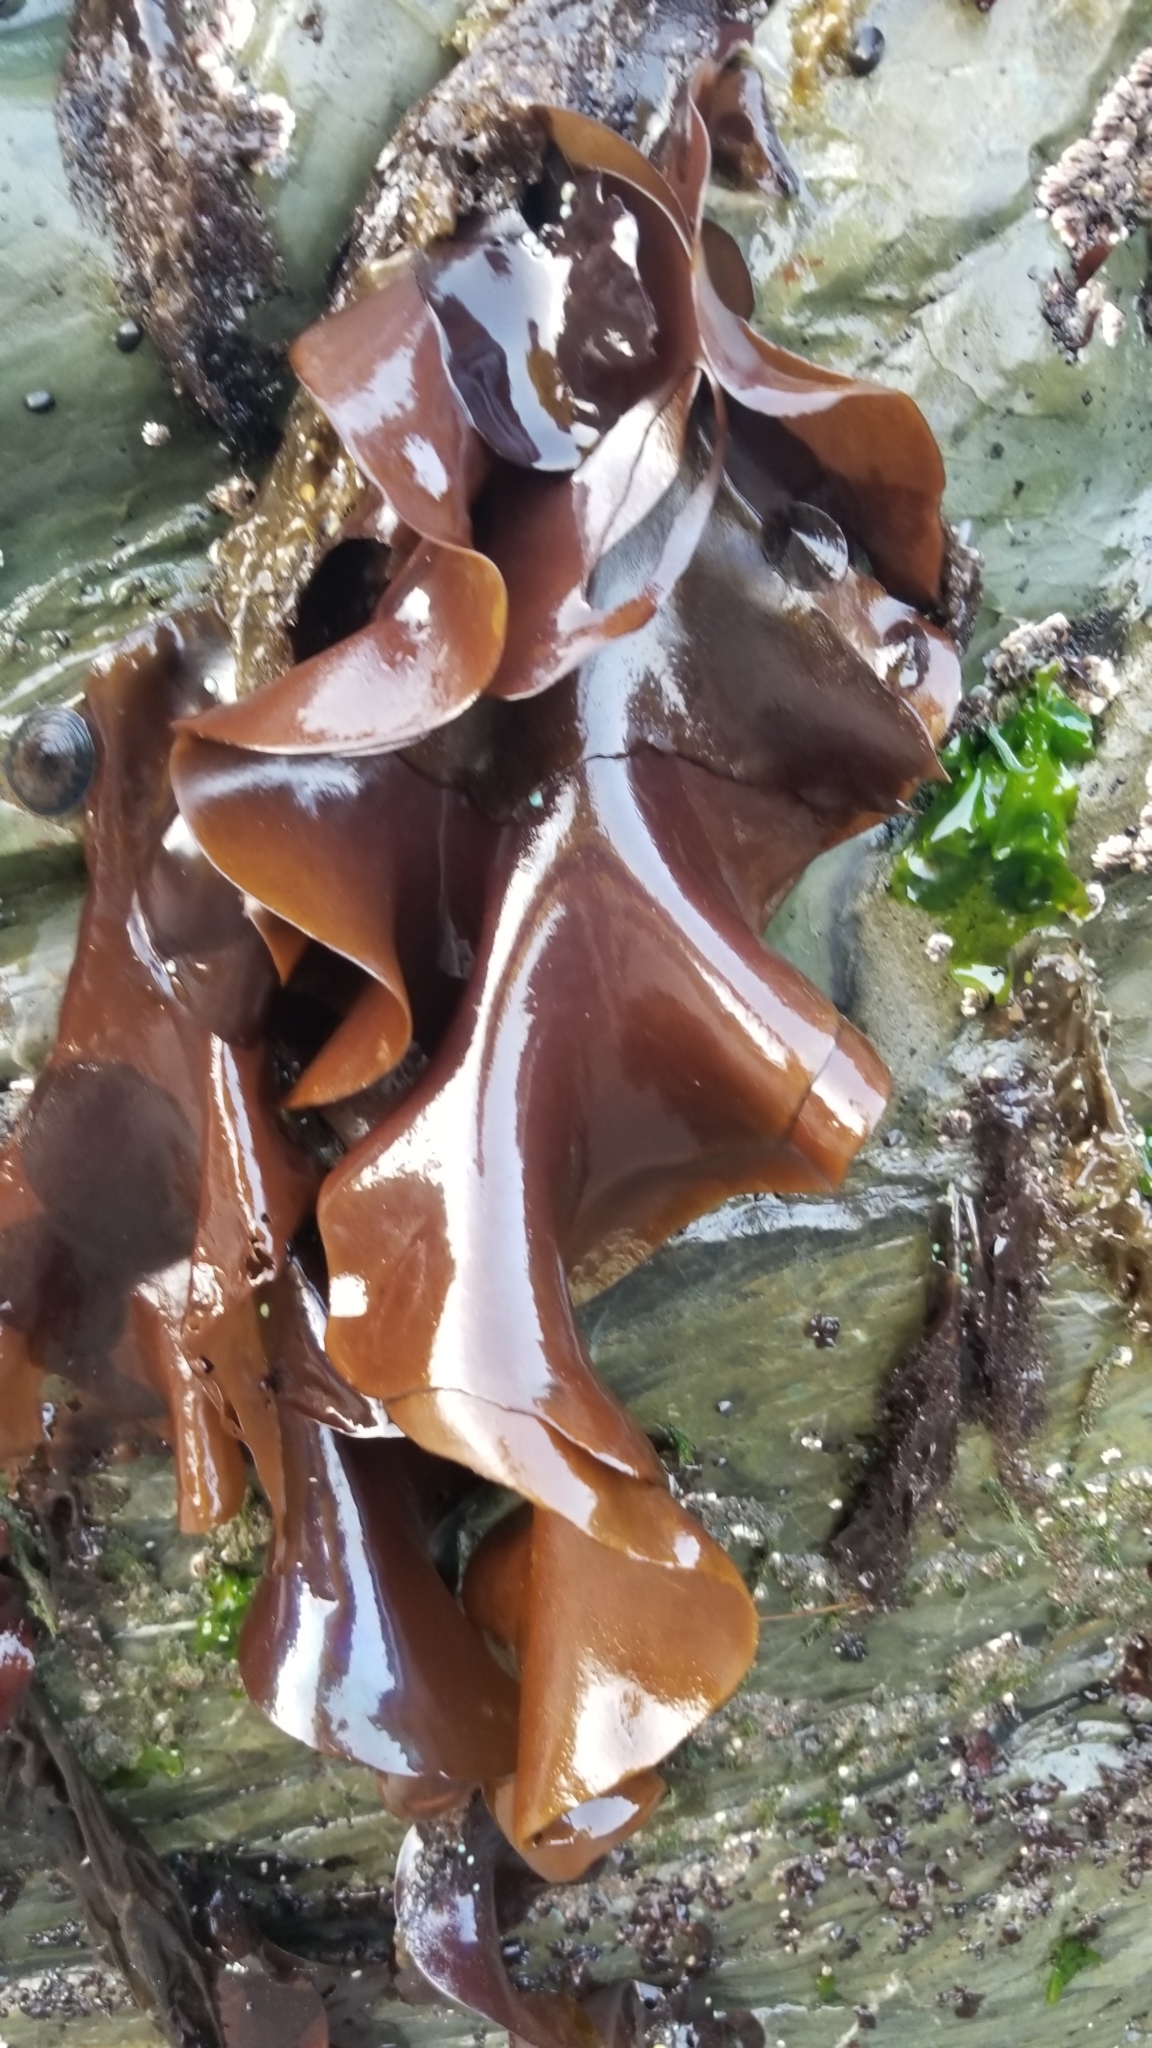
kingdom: Plantae
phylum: Rhodophyta
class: Florideophyceae
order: Gigartinales
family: Gigartinaceae
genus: Mazzaella
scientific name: Mazzaella splendens
